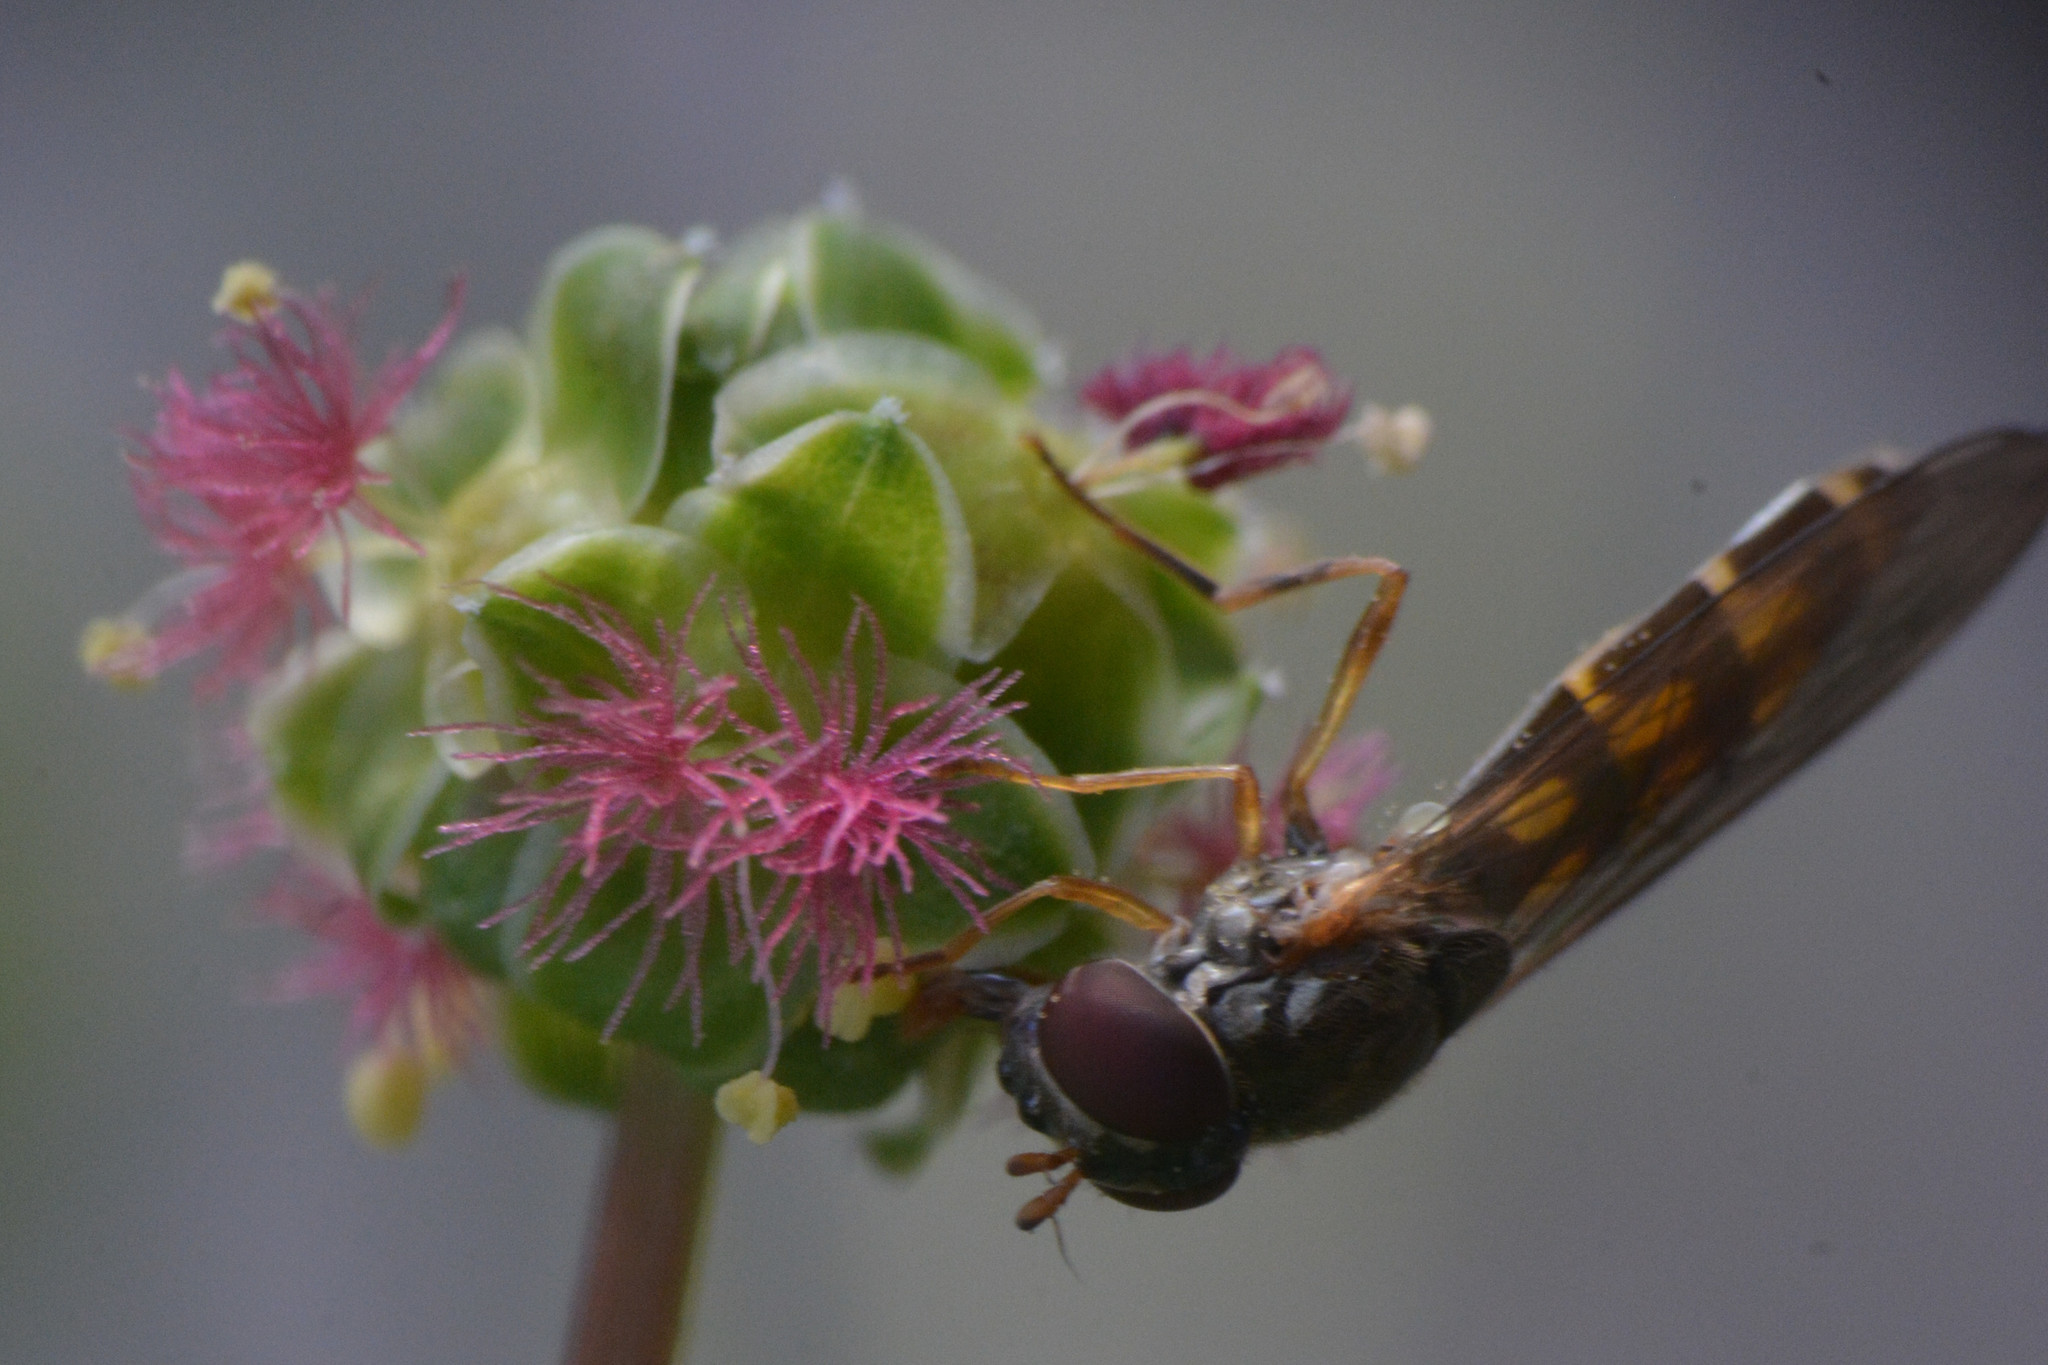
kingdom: Animalia
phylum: Arthropoda
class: Insecta
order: Diptera
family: Syrphidae
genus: Melanostoma
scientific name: Melanostoma scalare
